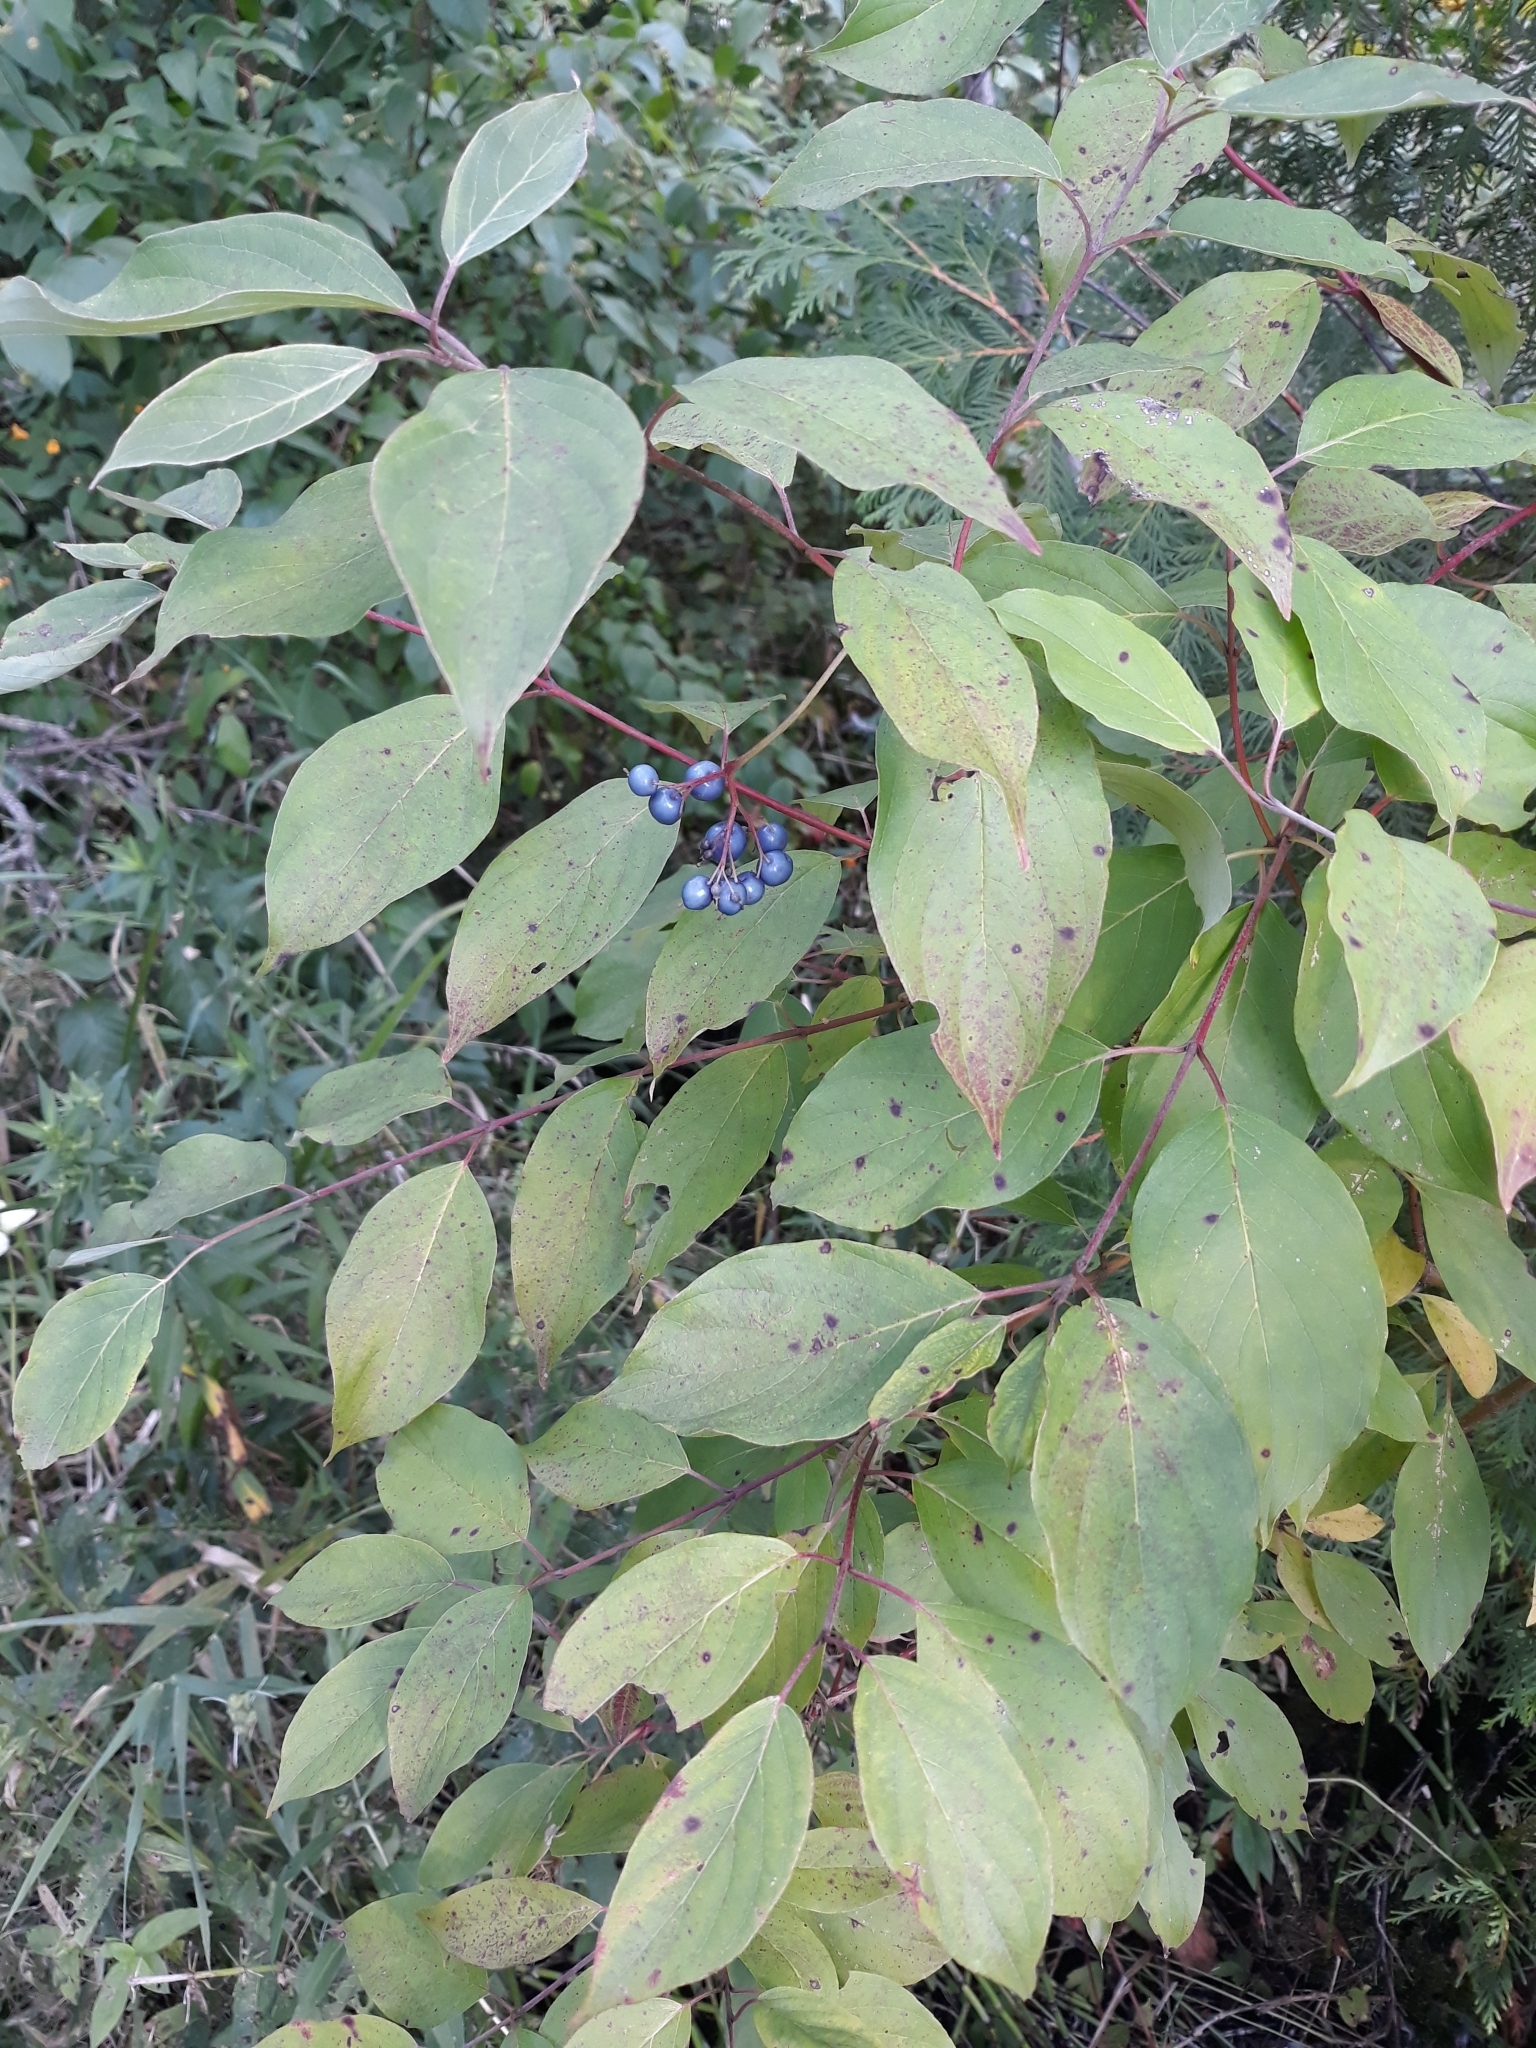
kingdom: Plantae
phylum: Tracheophyta
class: Magnoliopsida
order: Cornales
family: Cornaceae
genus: Cornus
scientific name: Cornus amomum
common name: Silky dogwood
